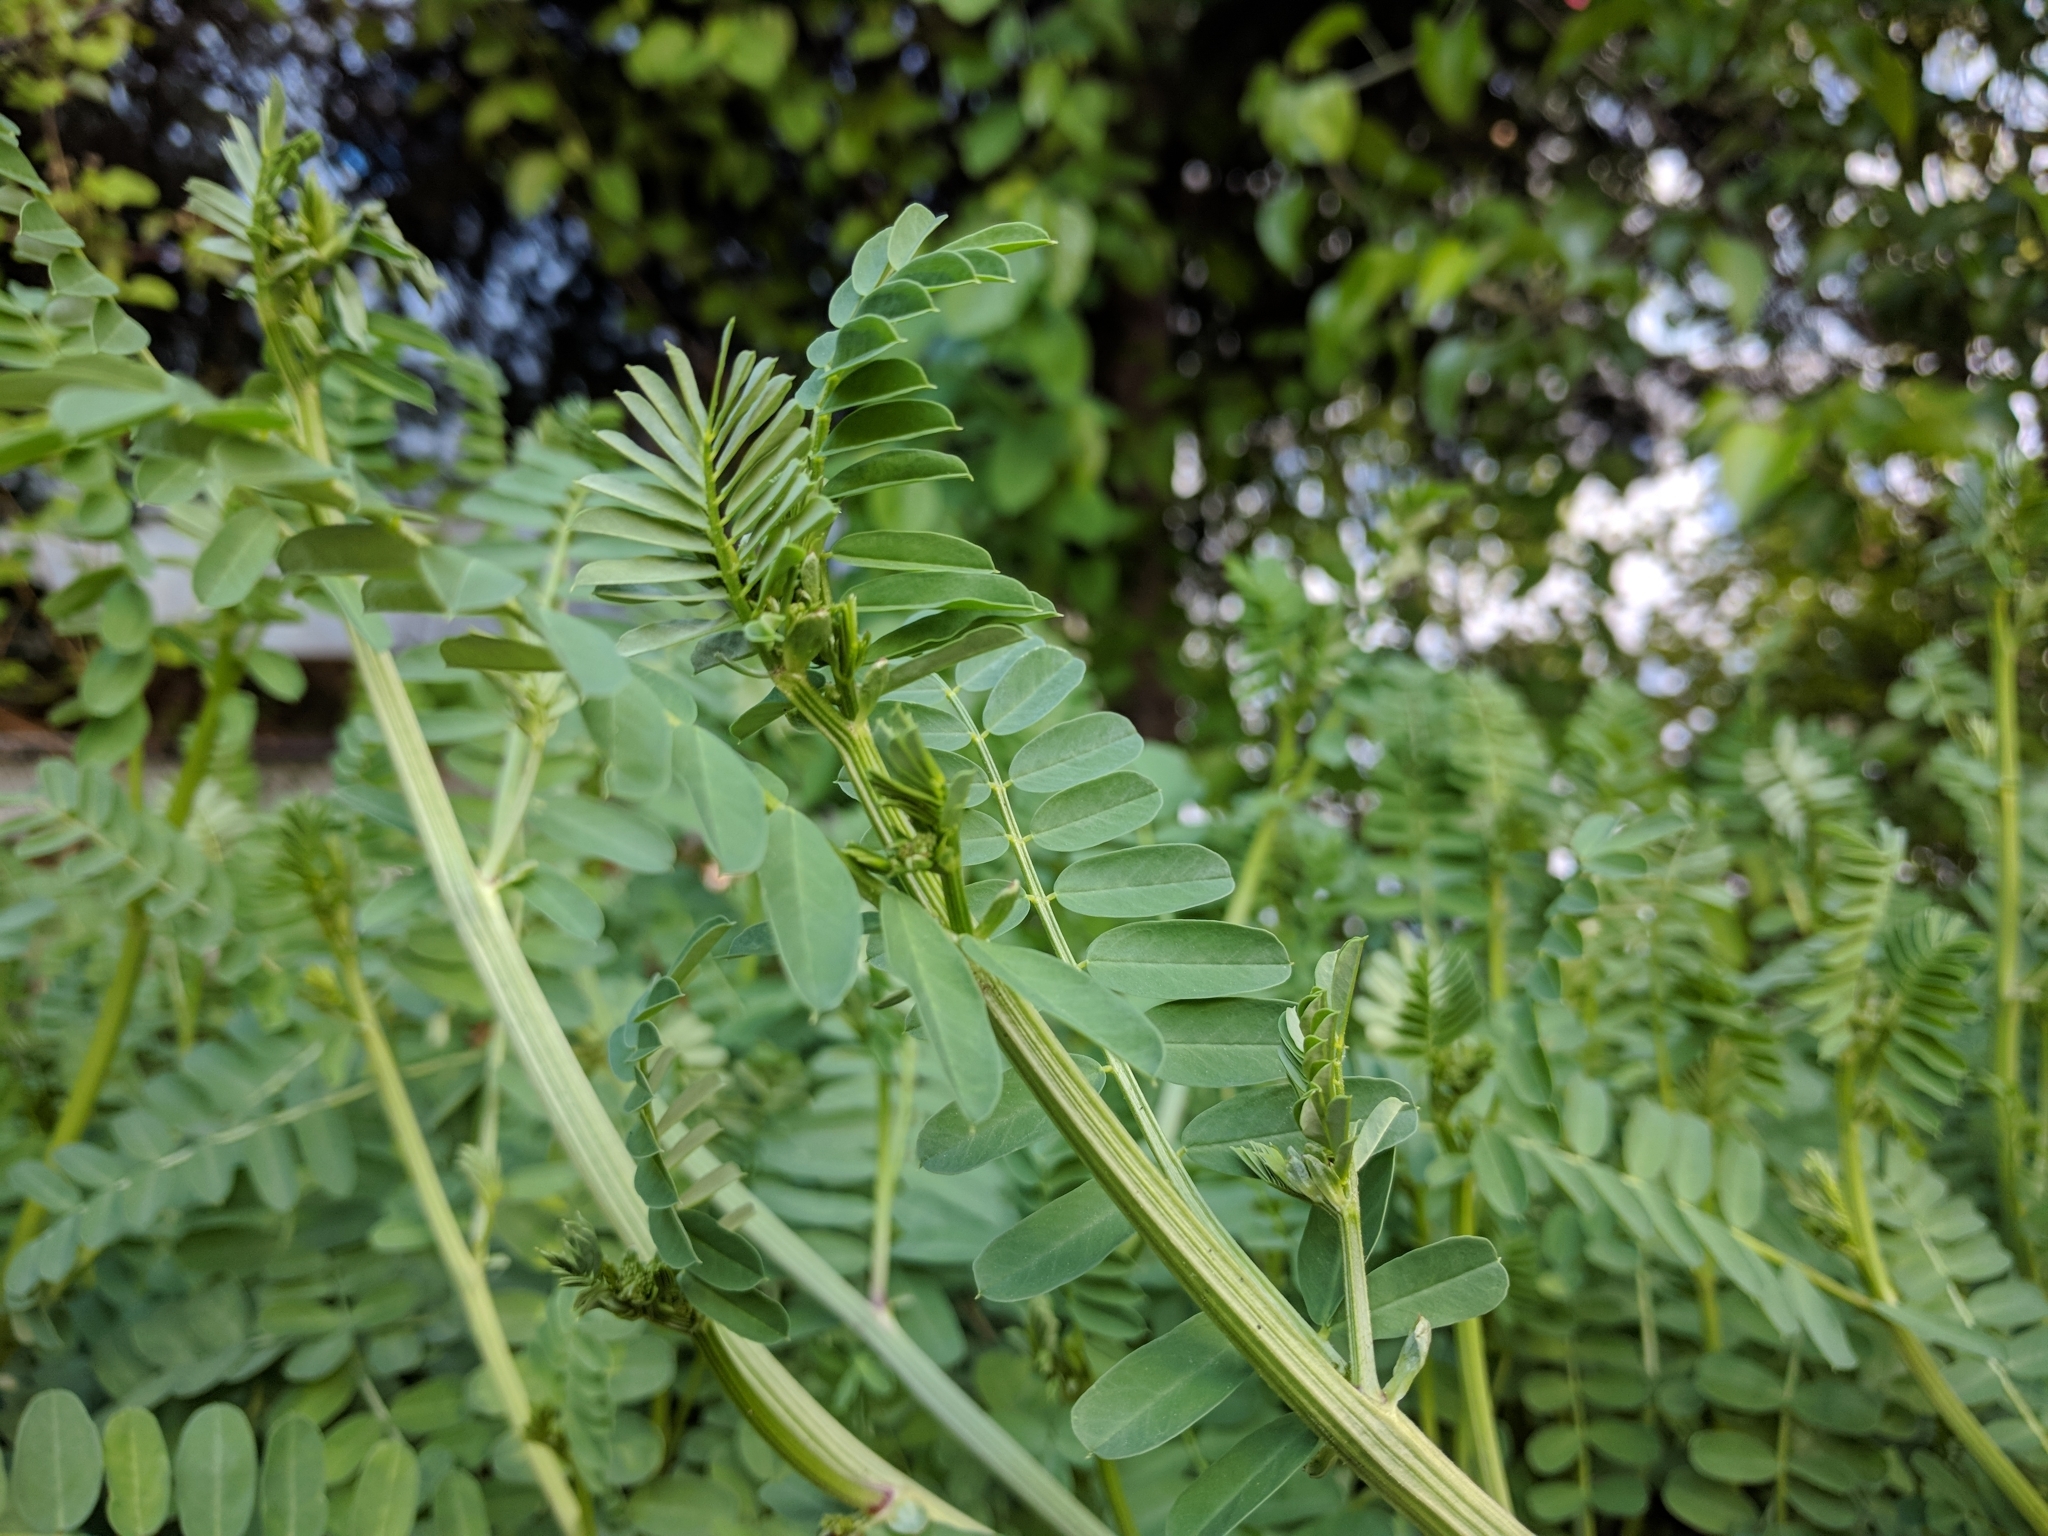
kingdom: Plantae
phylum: Tracheophyta
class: Magnoliopsida
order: Fabales
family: Fabaceae
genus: Coronilla
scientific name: Coronilla varia
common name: Crownvetch
